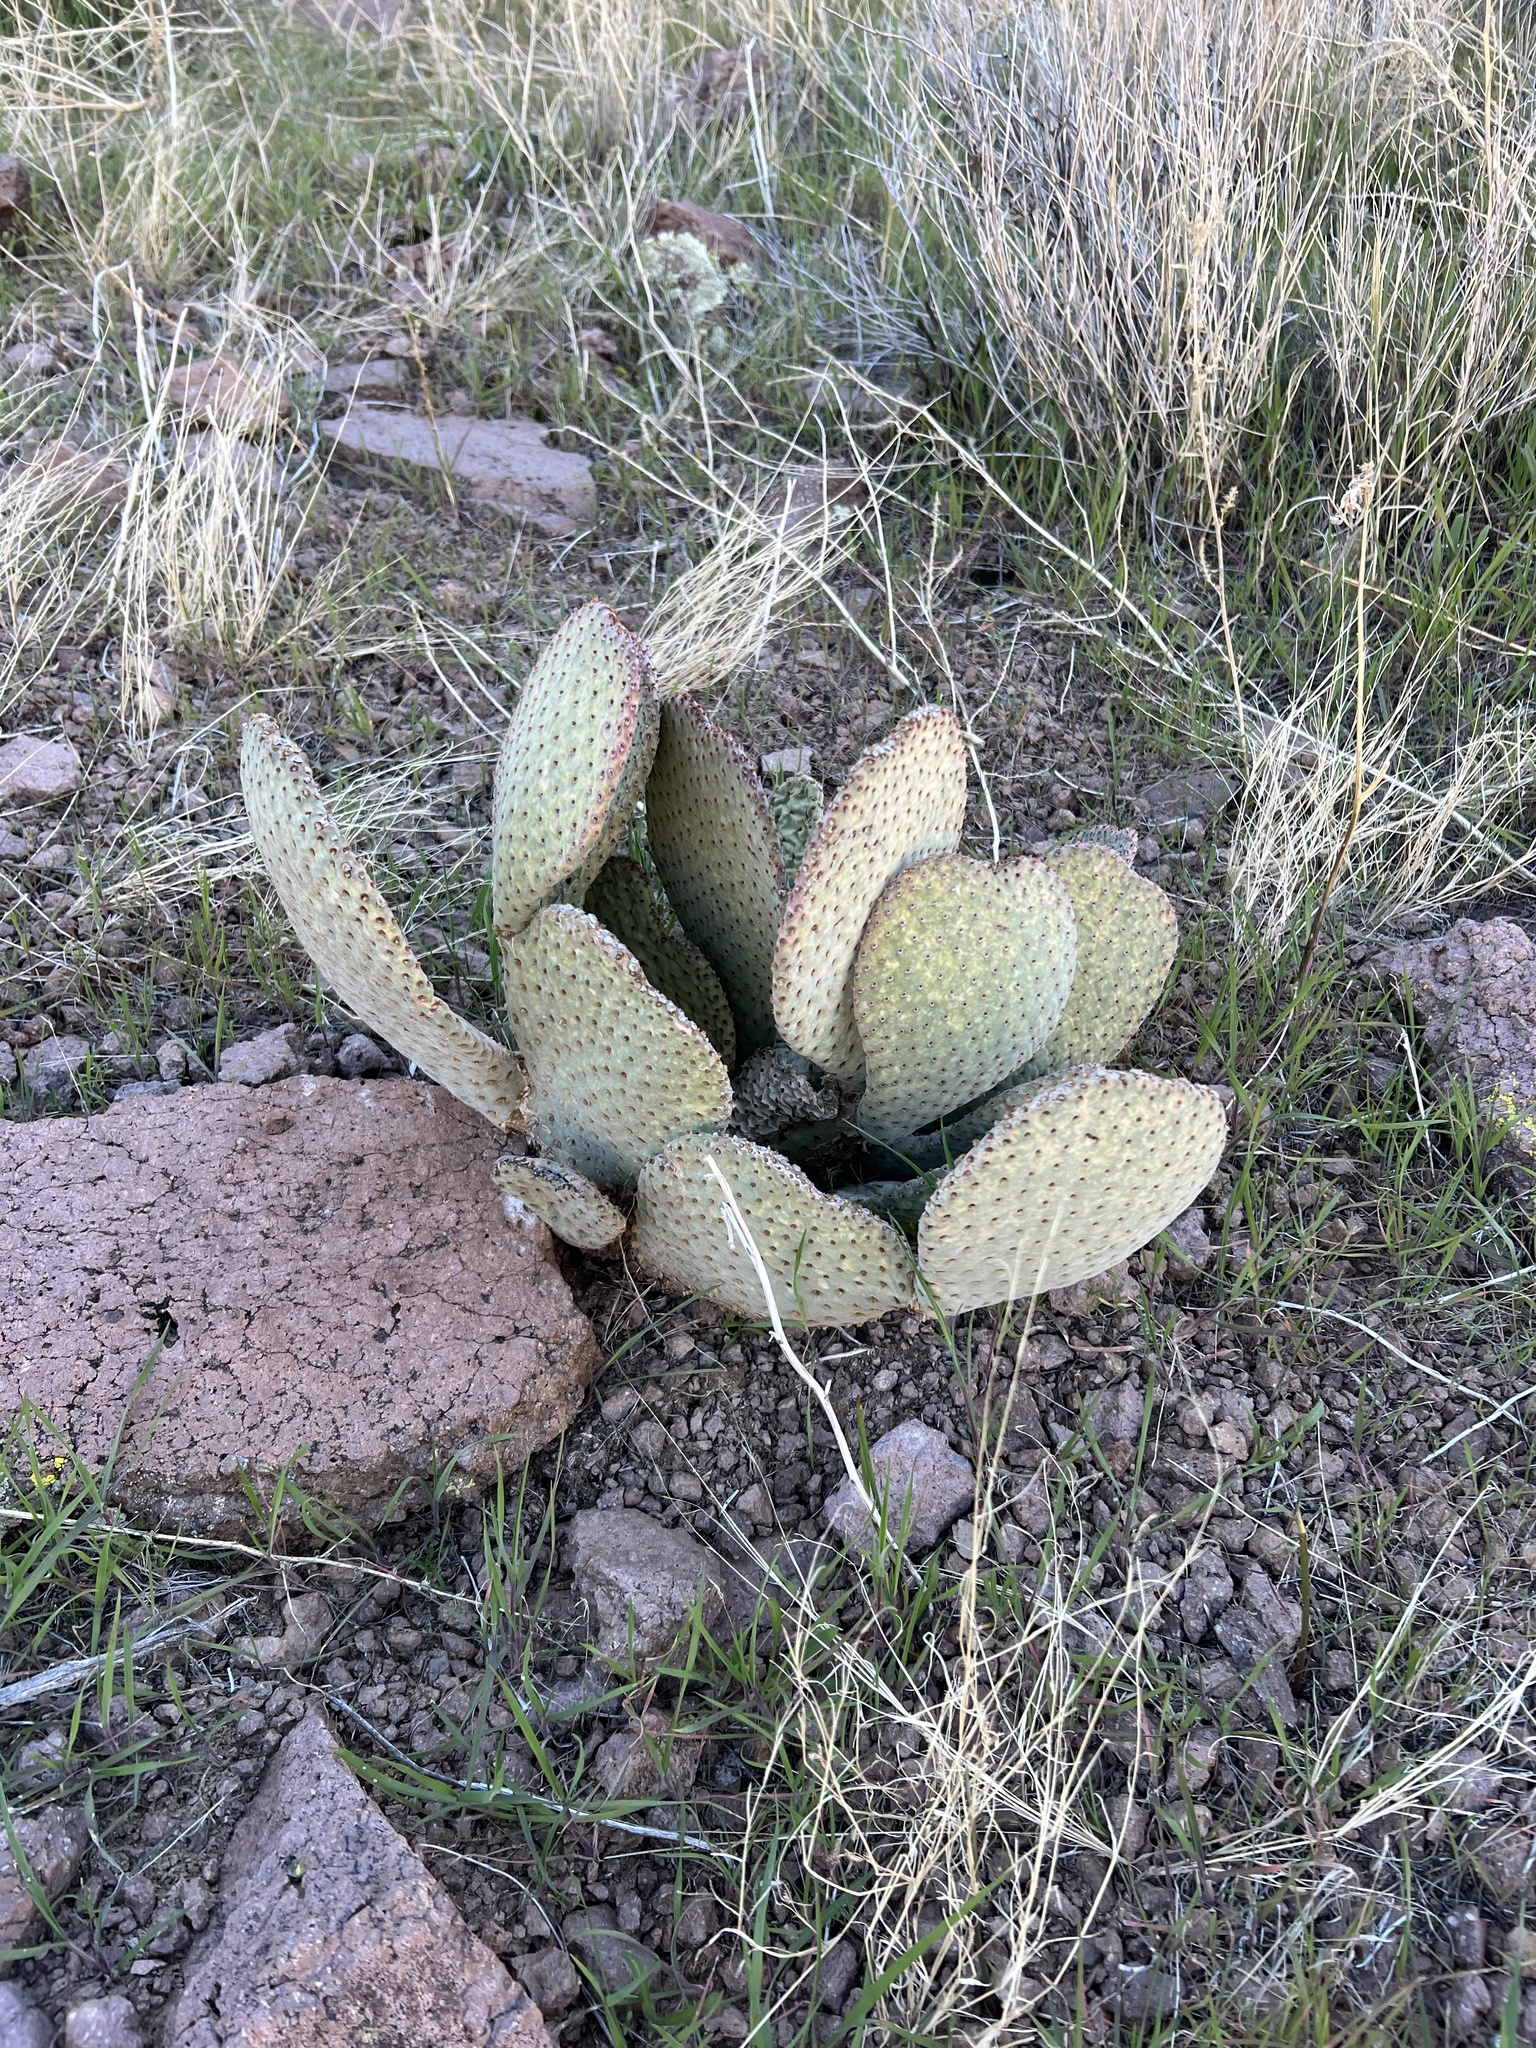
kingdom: Plantae
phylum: Tracheophyta
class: Magnoliopsida
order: Caryophyllales
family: Cactaceae
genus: Opuntia
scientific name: Opuntia basilaris
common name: Beavertail prickly-pear
